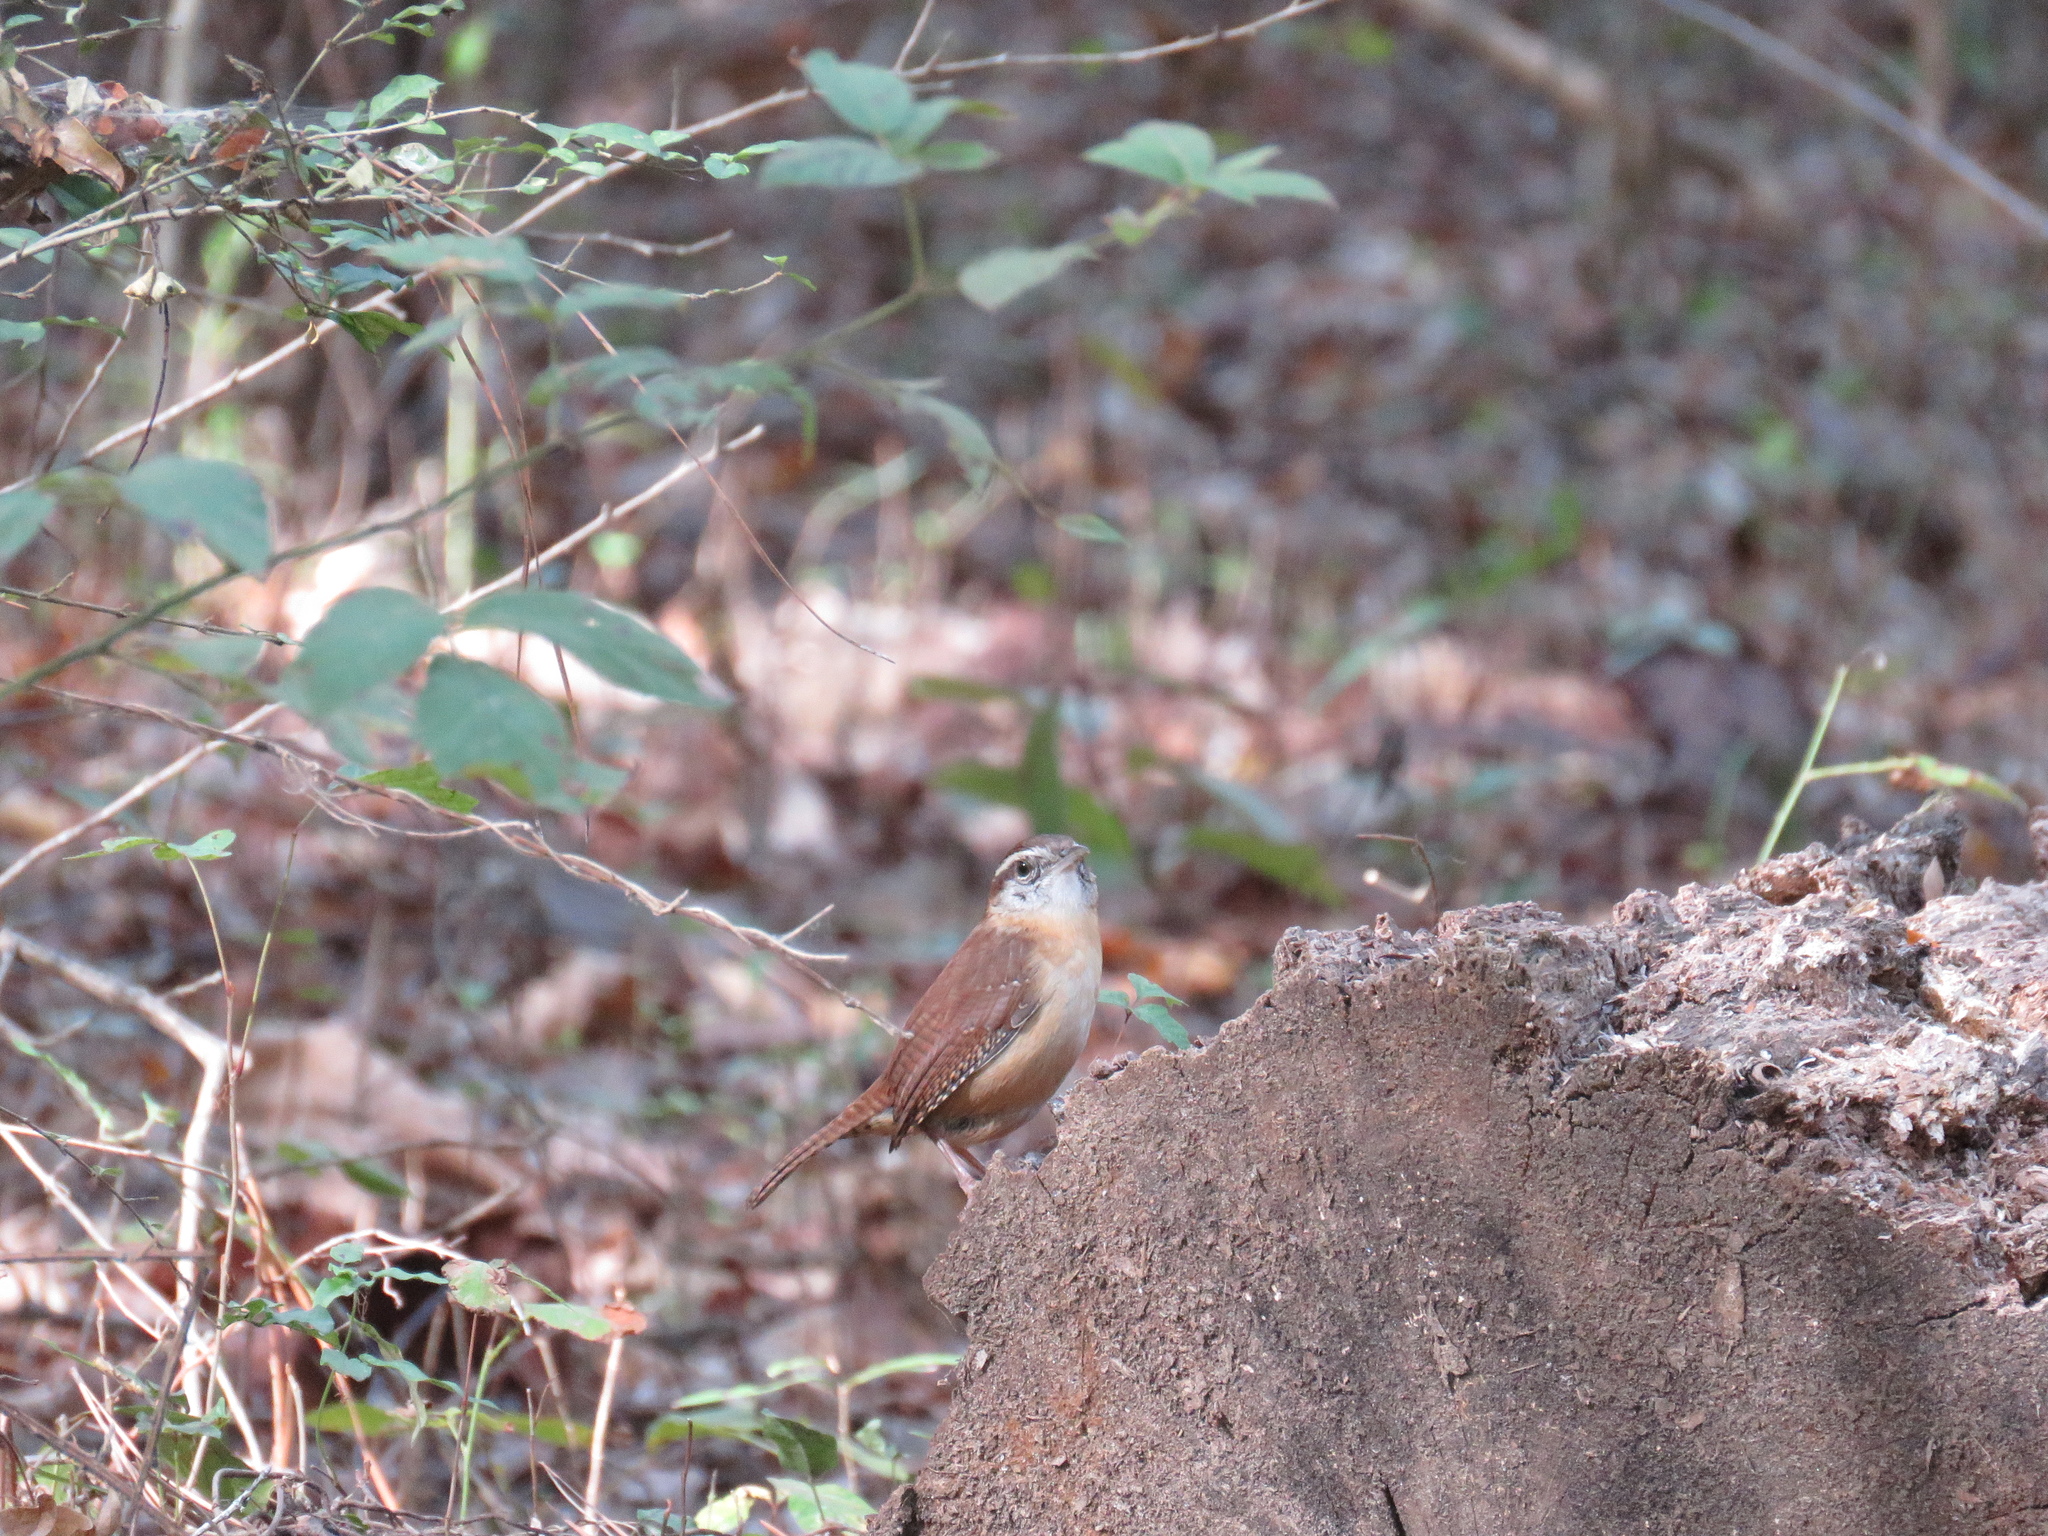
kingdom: Animalia
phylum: Chordata
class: Aves
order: Passeriformes
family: Troglodytidae
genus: Thryothorus
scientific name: Thryothorus ludovicianus
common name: Carolina wren
